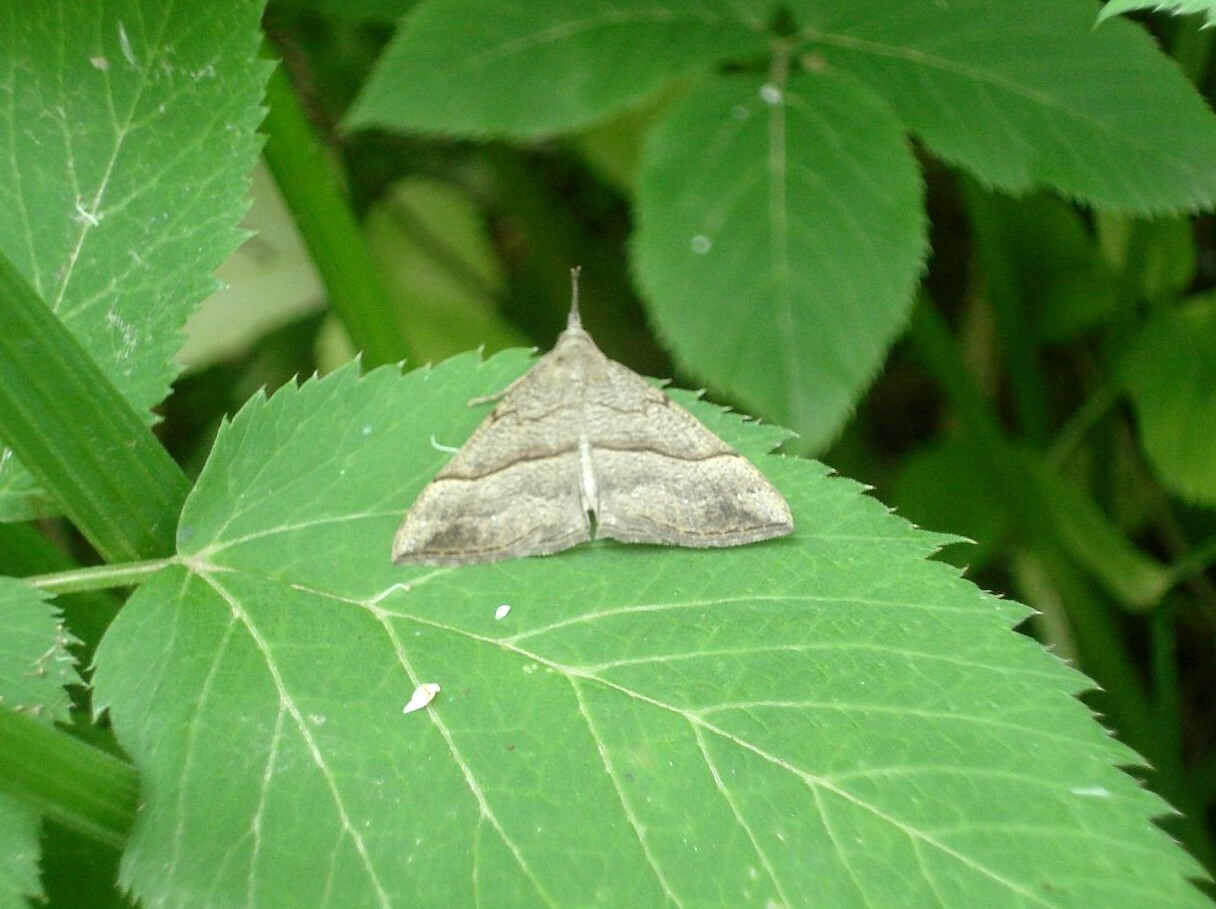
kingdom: Animalia
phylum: Arthropoda
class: Insecta
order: Lepidoptera
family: Erebidae
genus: Hypena
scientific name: Hypena proboscidalis
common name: Snout
